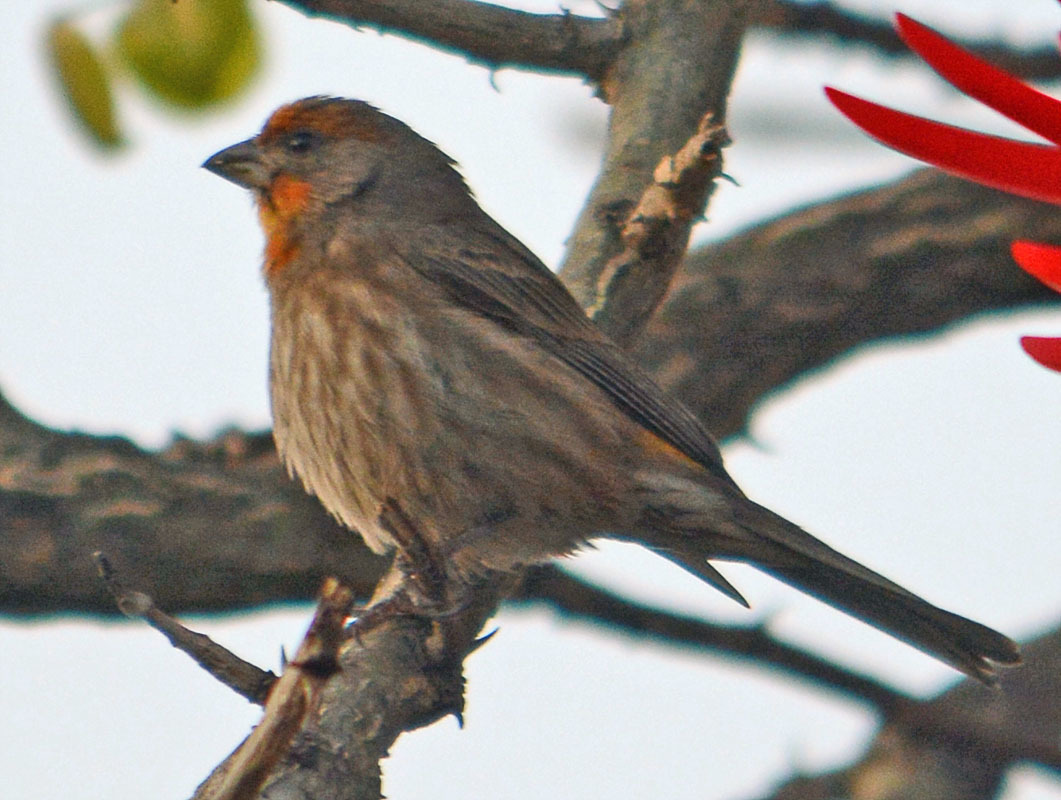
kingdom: Animalia
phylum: Chordata
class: Aves
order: Passeriformes
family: Fringillidae
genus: Haemorhous
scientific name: Haemorhous mexicanus
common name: House finch
